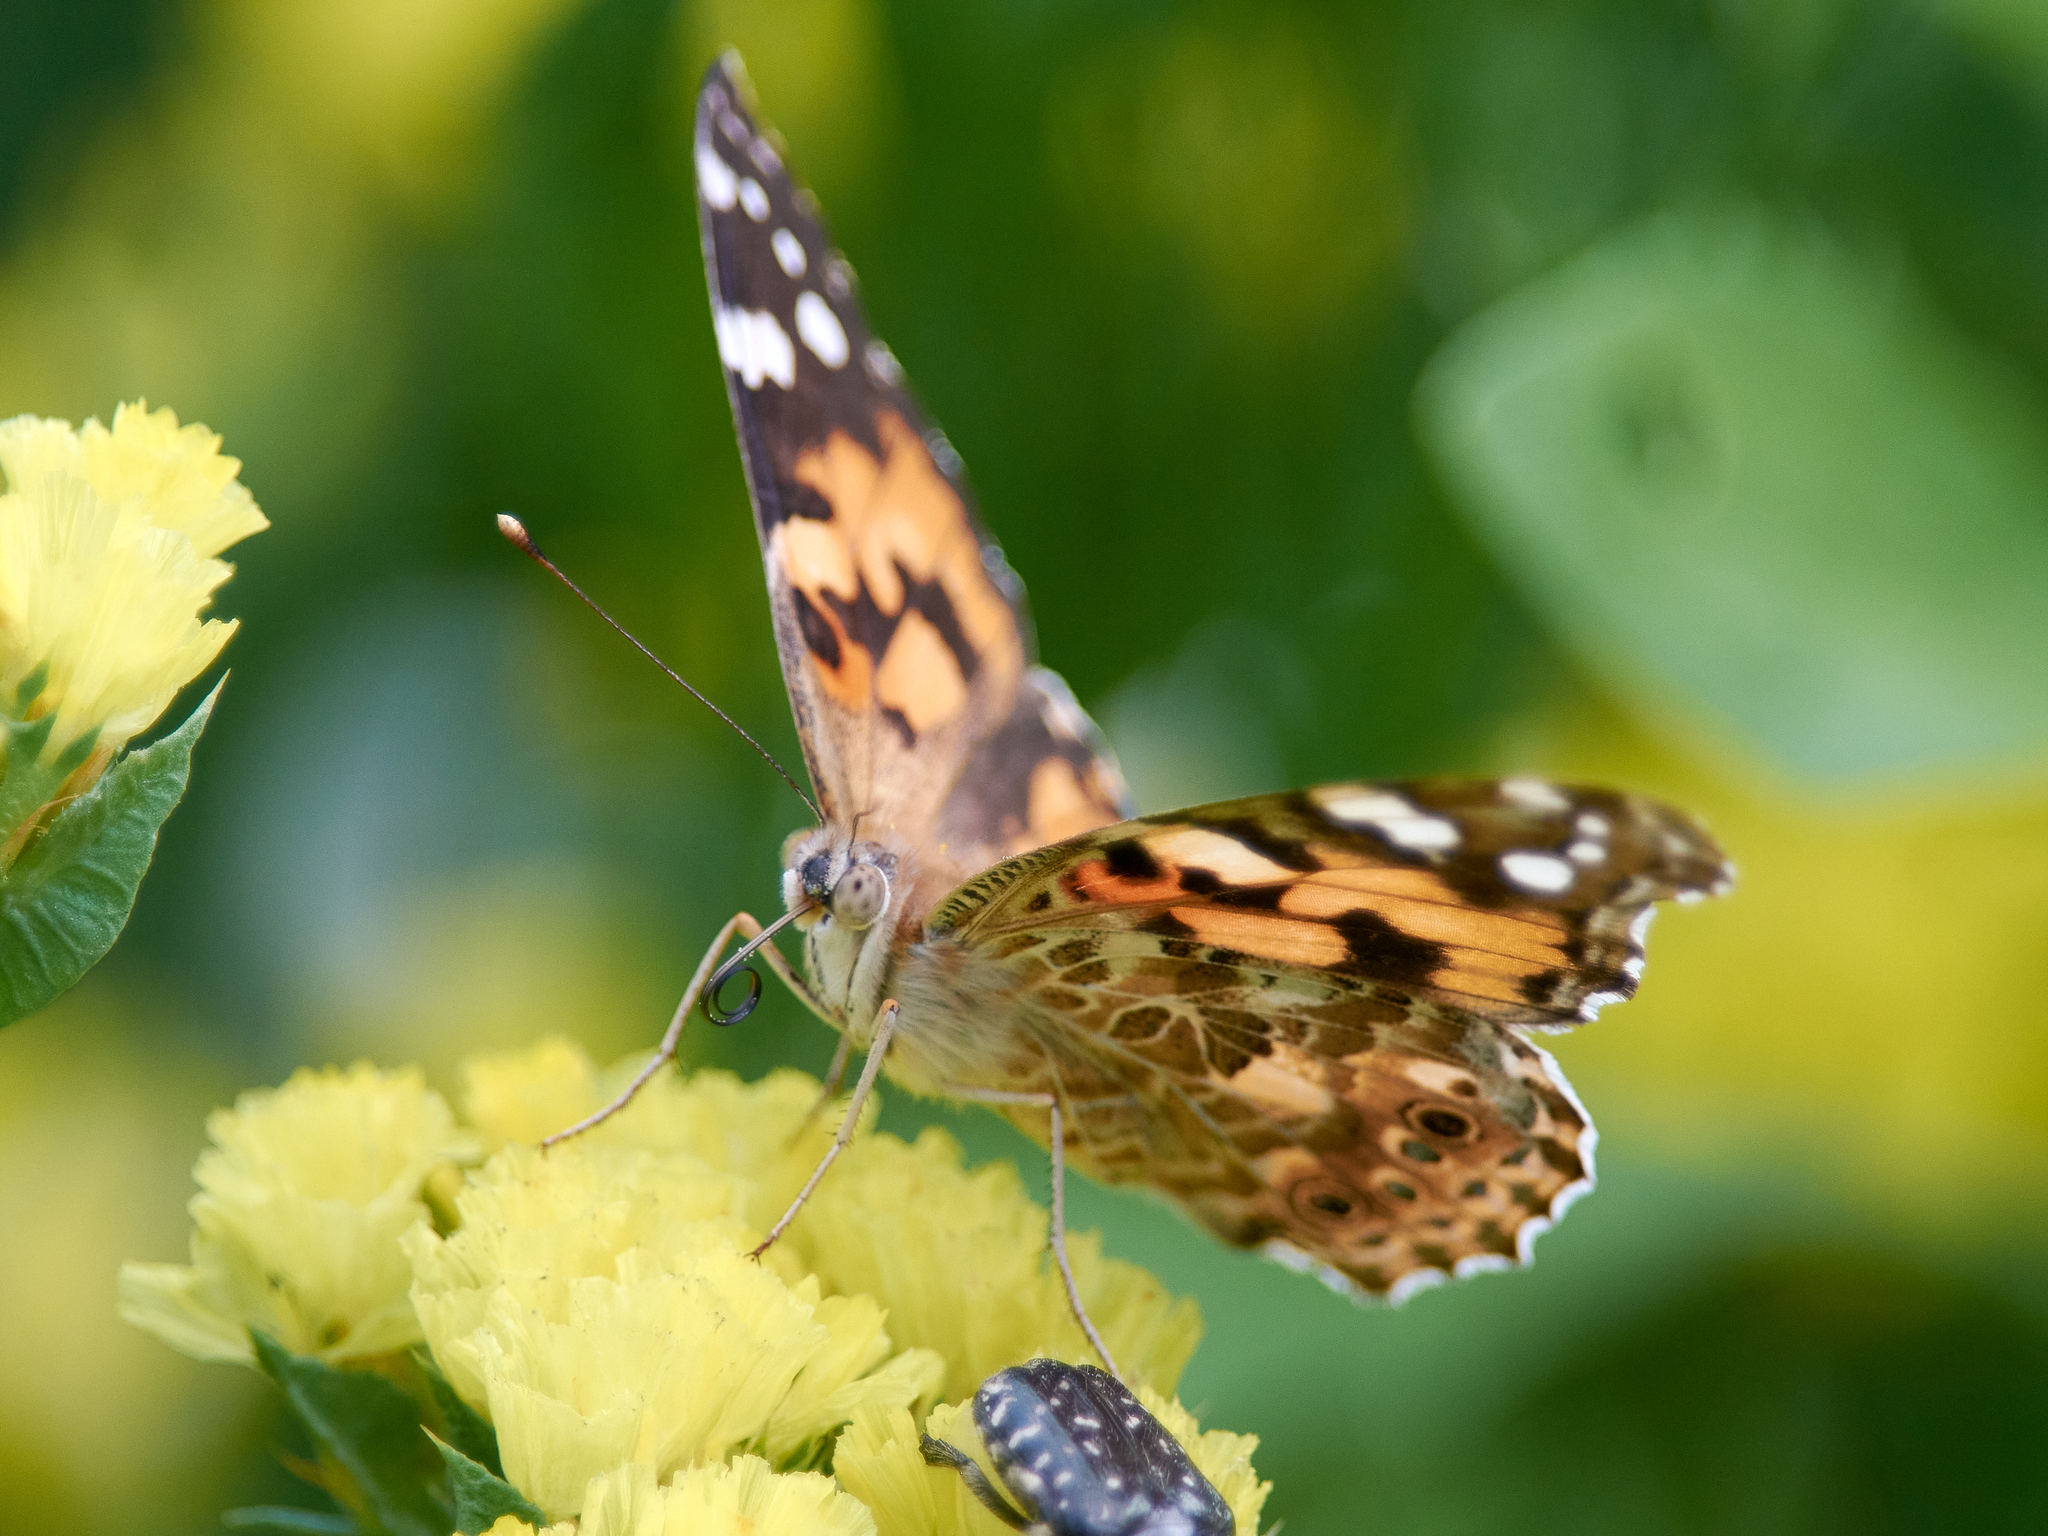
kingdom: Animalia
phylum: Arthropoda
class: Insecta
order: Lepidoptera
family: Nymphalidae
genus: Vanessa
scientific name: Vanessa cardui
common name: Painted lady
